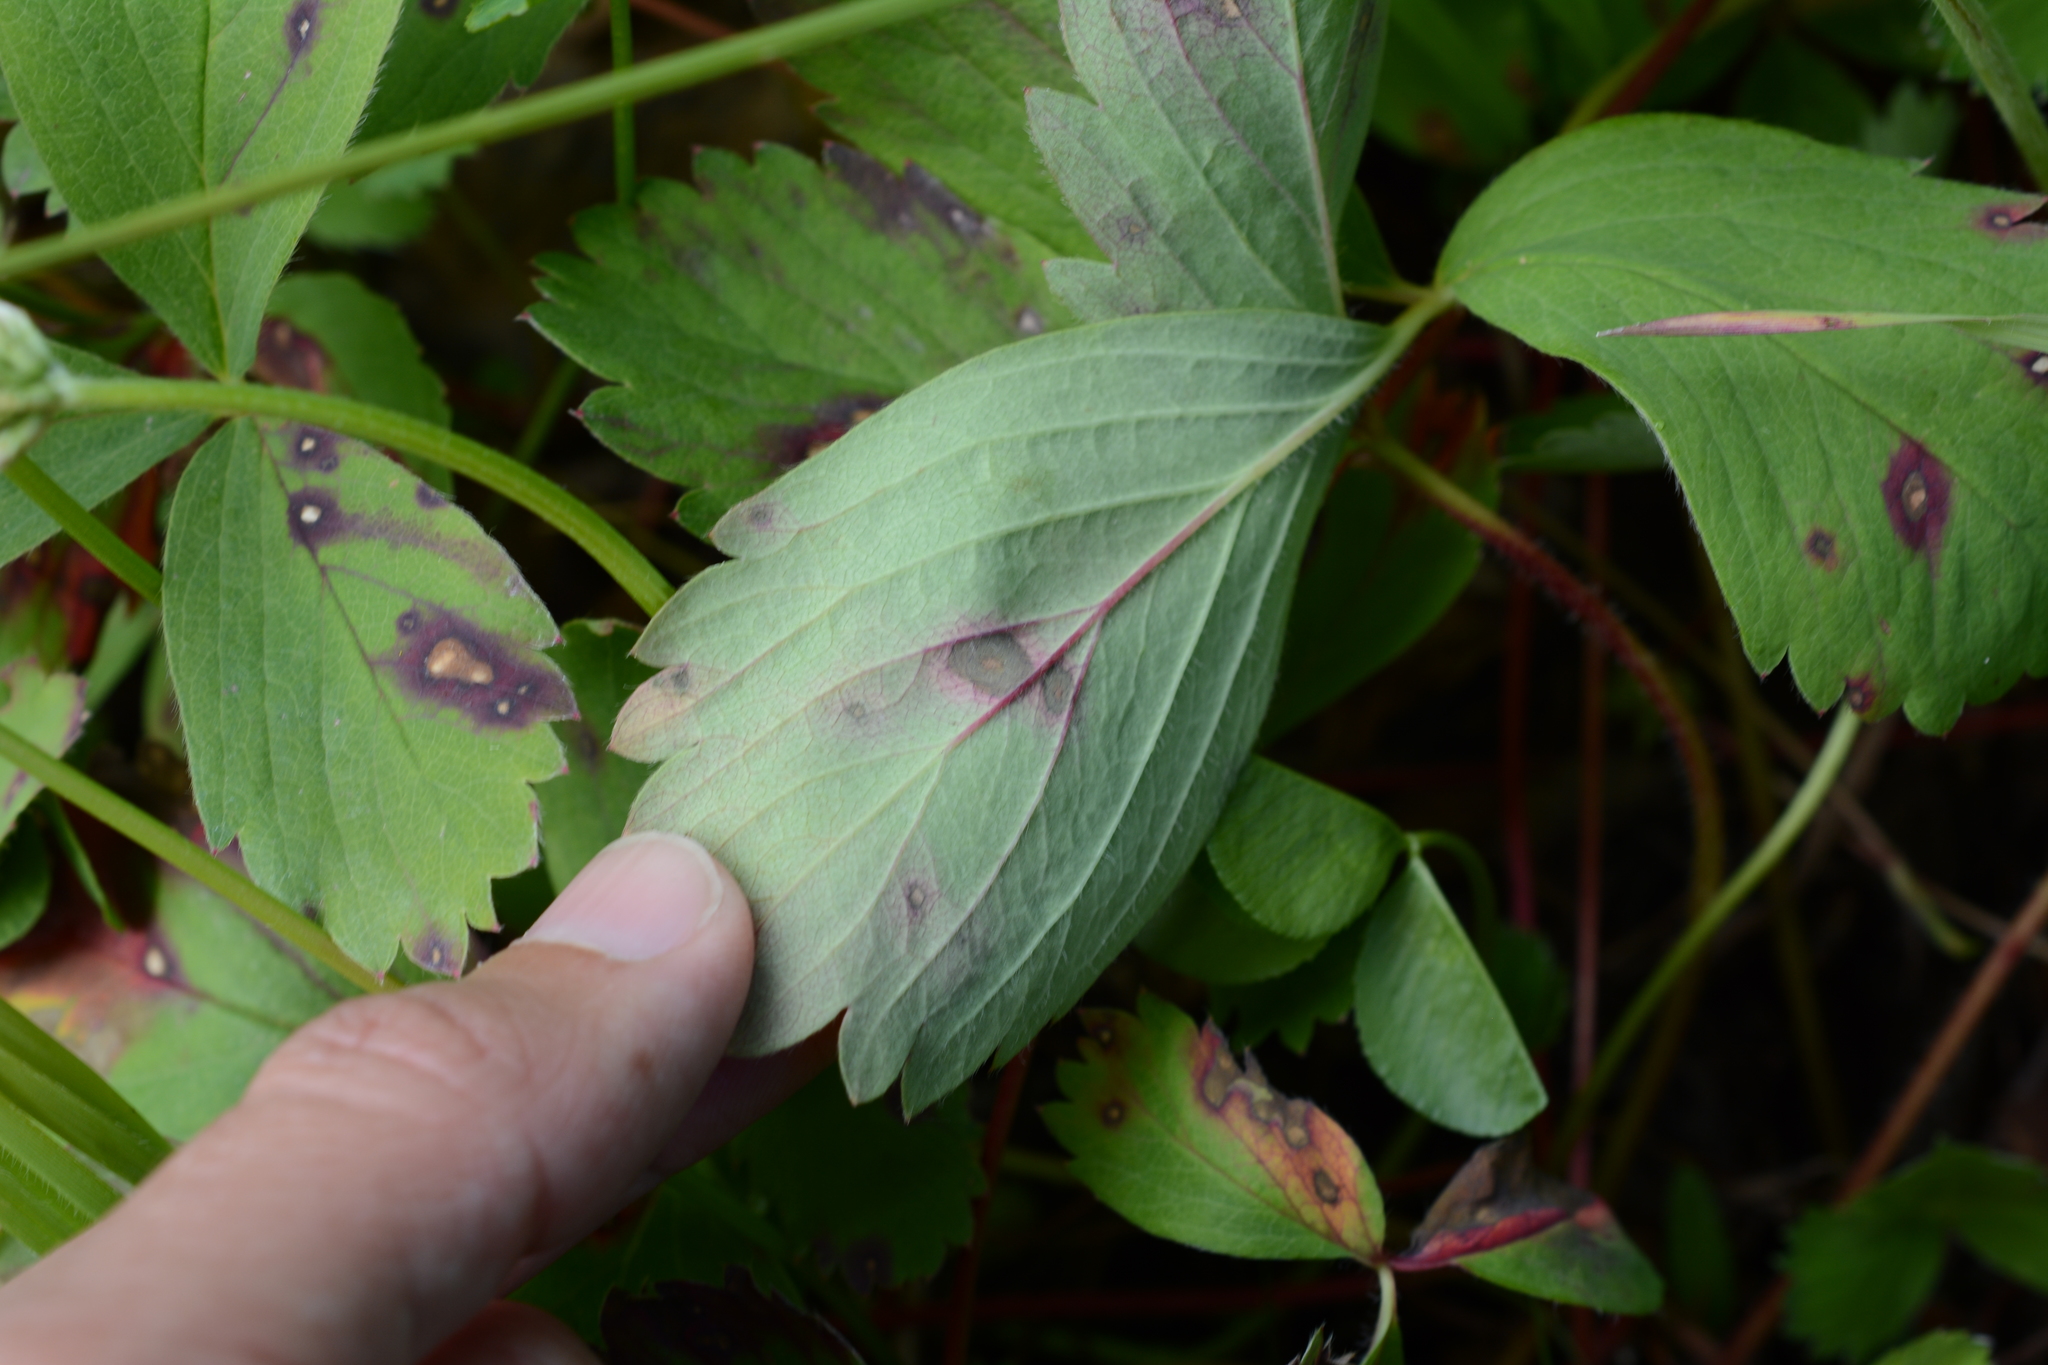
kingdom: Fungi
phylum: Ascomycota
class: Dothideomycetes
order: Mycosphaerellales
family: Mycosphaerellaceae
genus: Ramularia
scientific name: Ramularia grevilleana
